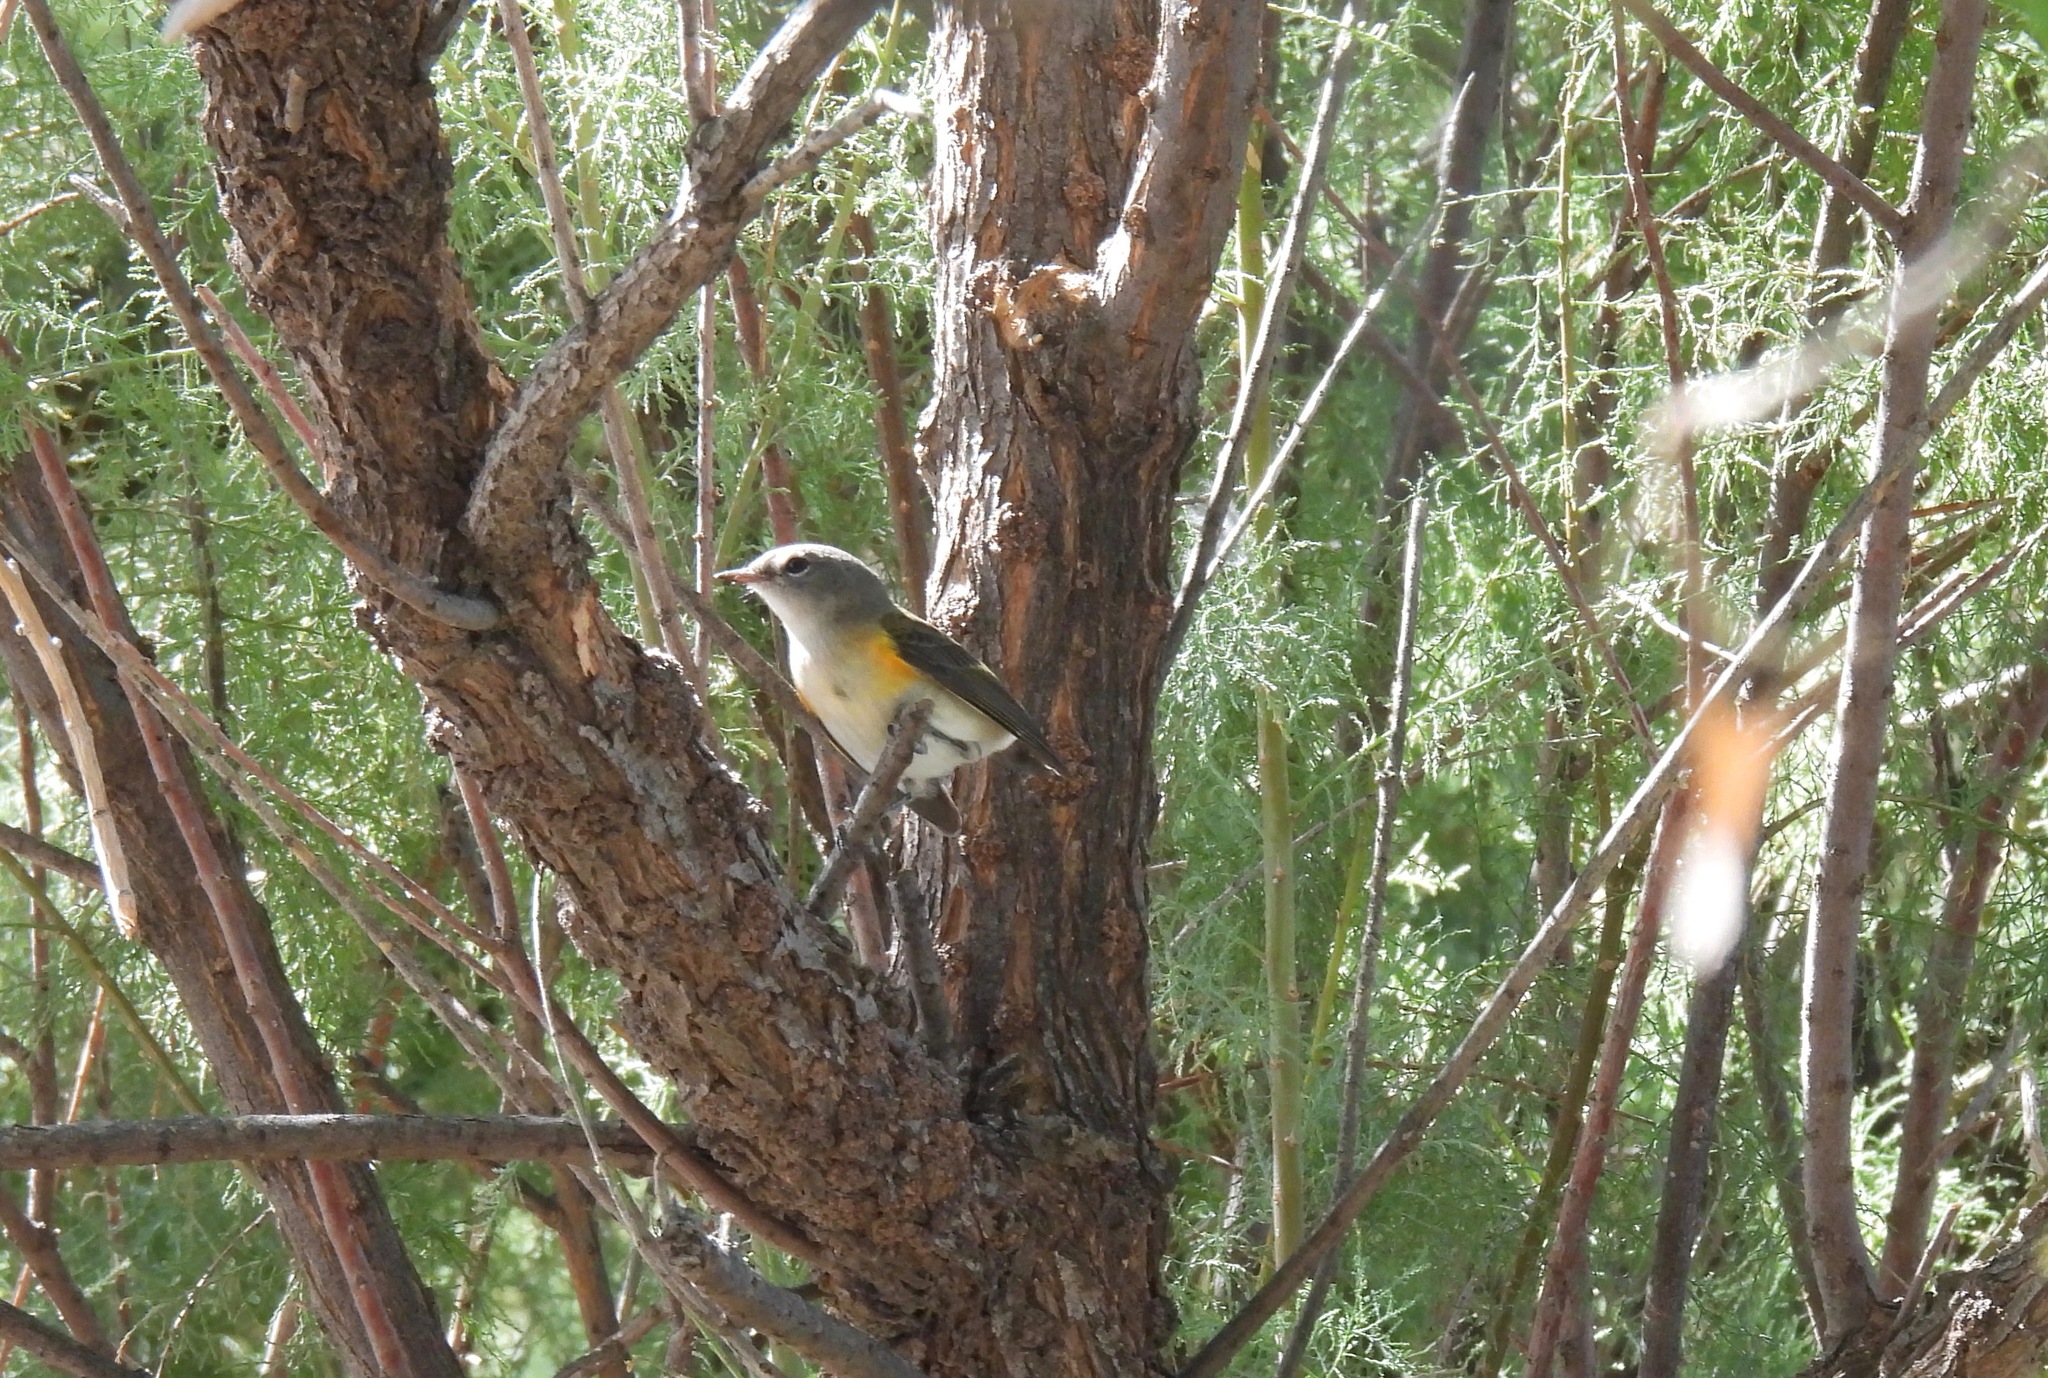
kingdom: Animalia
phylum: Chordata
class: Aves
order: Passeriformes
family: Parulidae
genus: Setophaga
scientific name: Setophaga ruticilla
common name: American redstart
